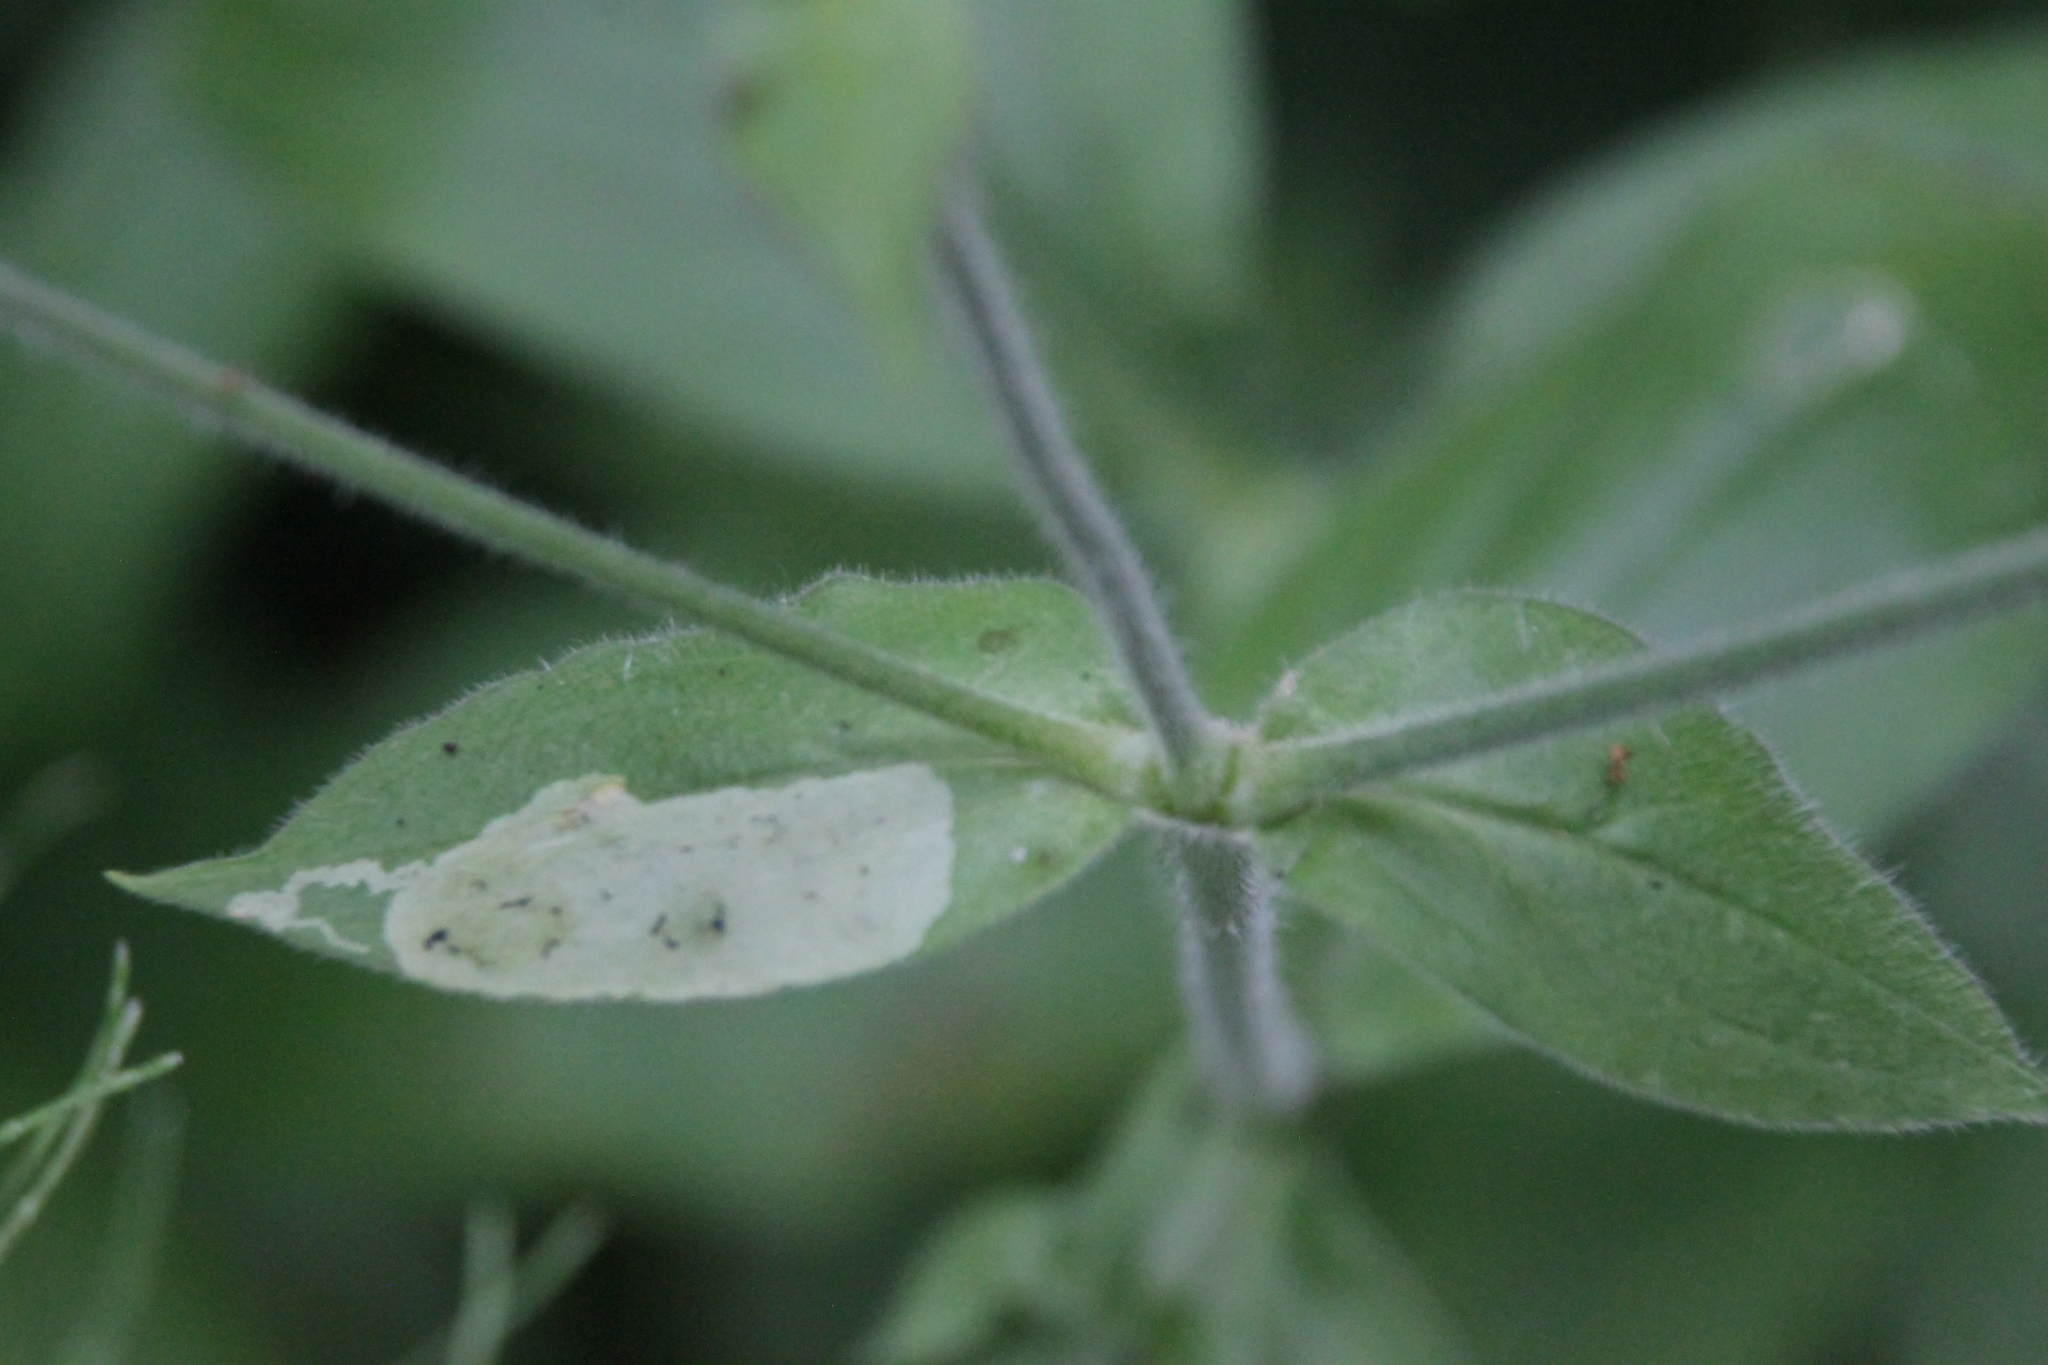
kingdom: Plantae
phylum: Tracheophyta
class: Magnoliopsida
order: Caryophyllales
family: Caryophyllaceae
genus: Silene
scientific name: Silene dioica
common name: Red campion
